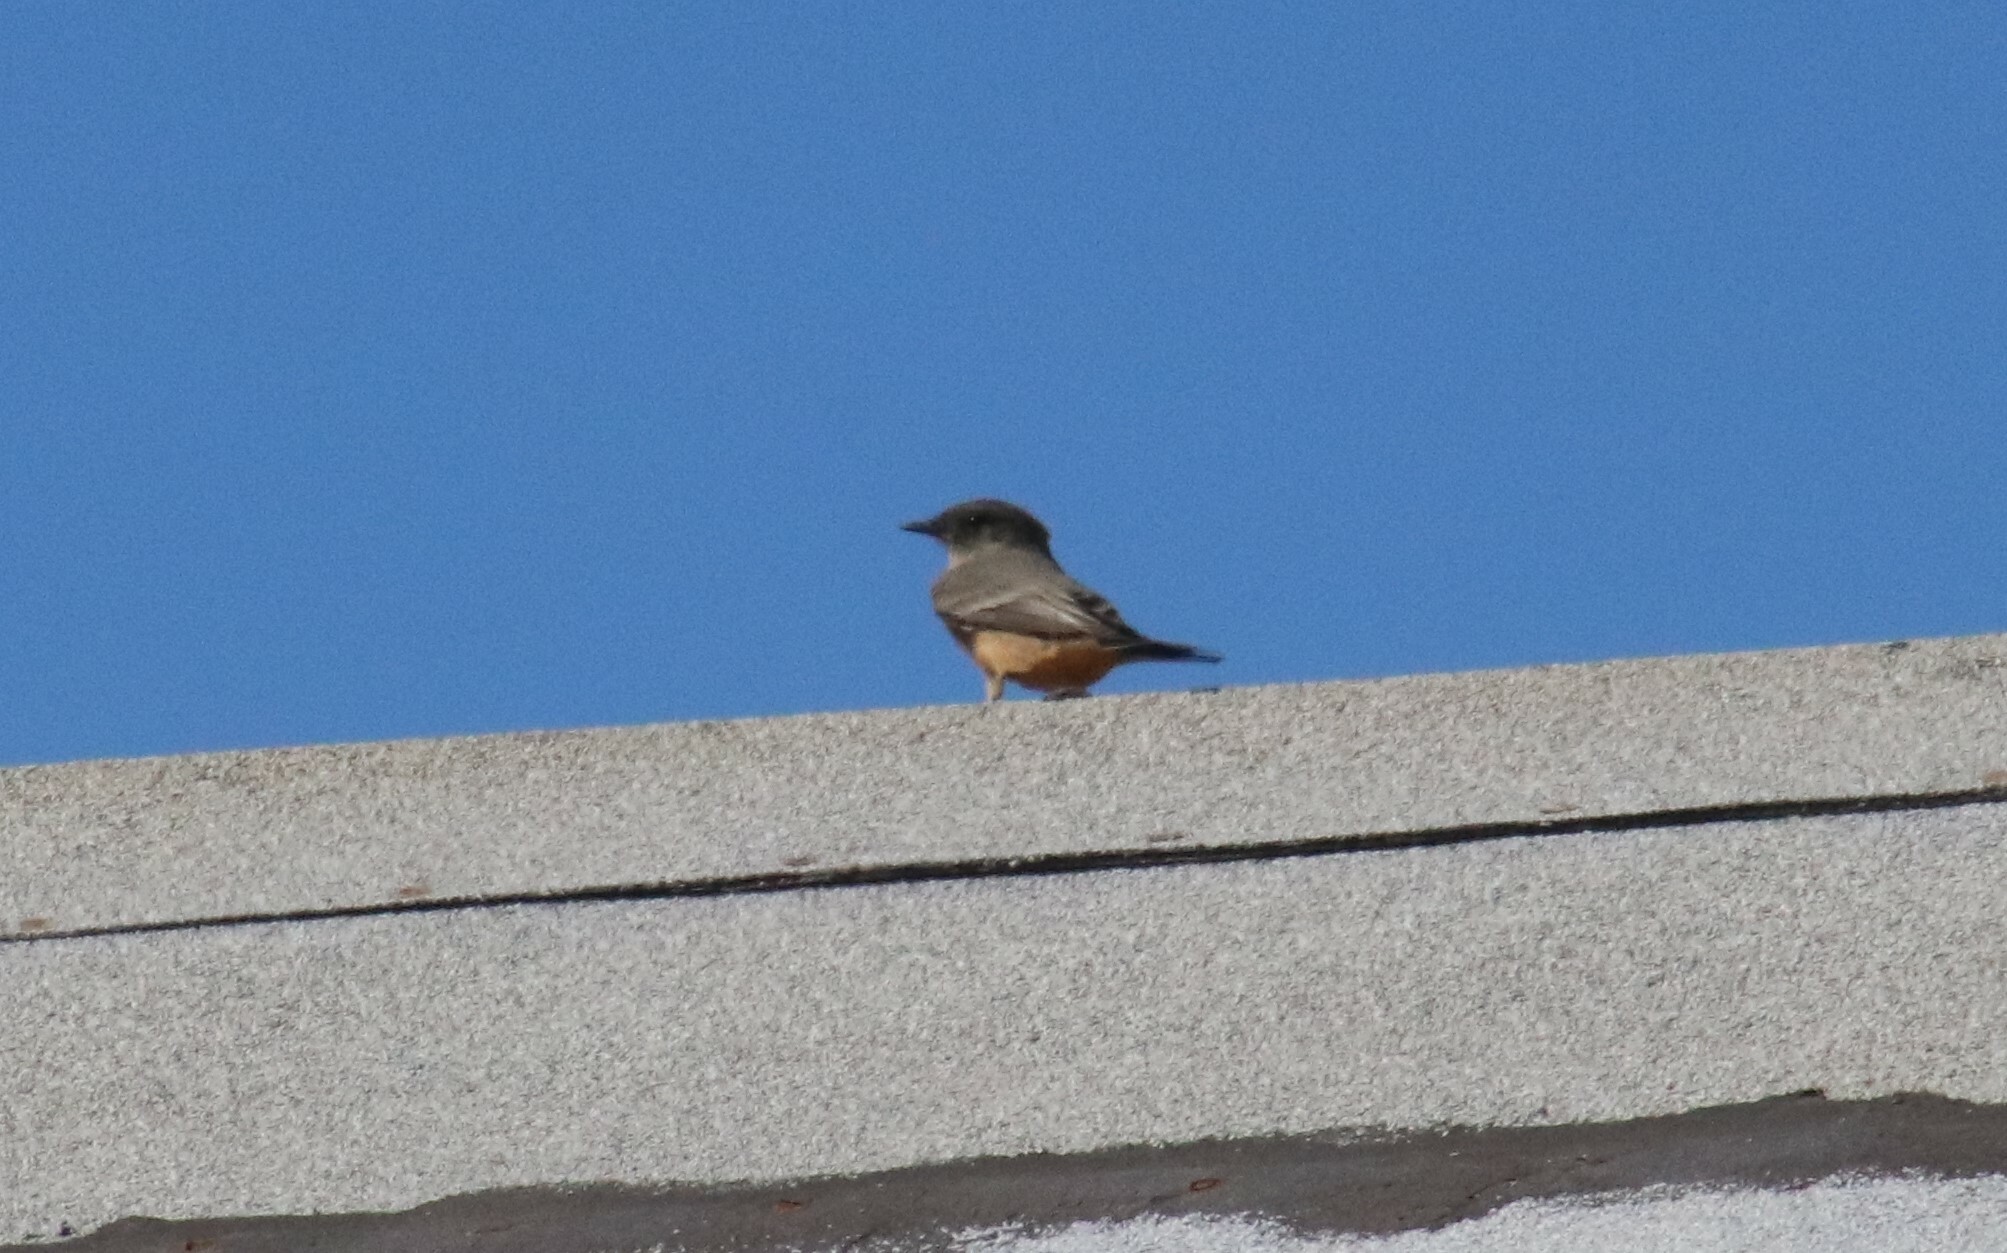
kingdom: Animalia
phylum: Chordata
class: Aves
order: Passeriformes
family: Tyrannidae
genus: Sayornis
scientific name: Sayornis saya
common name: Say's phoebe
